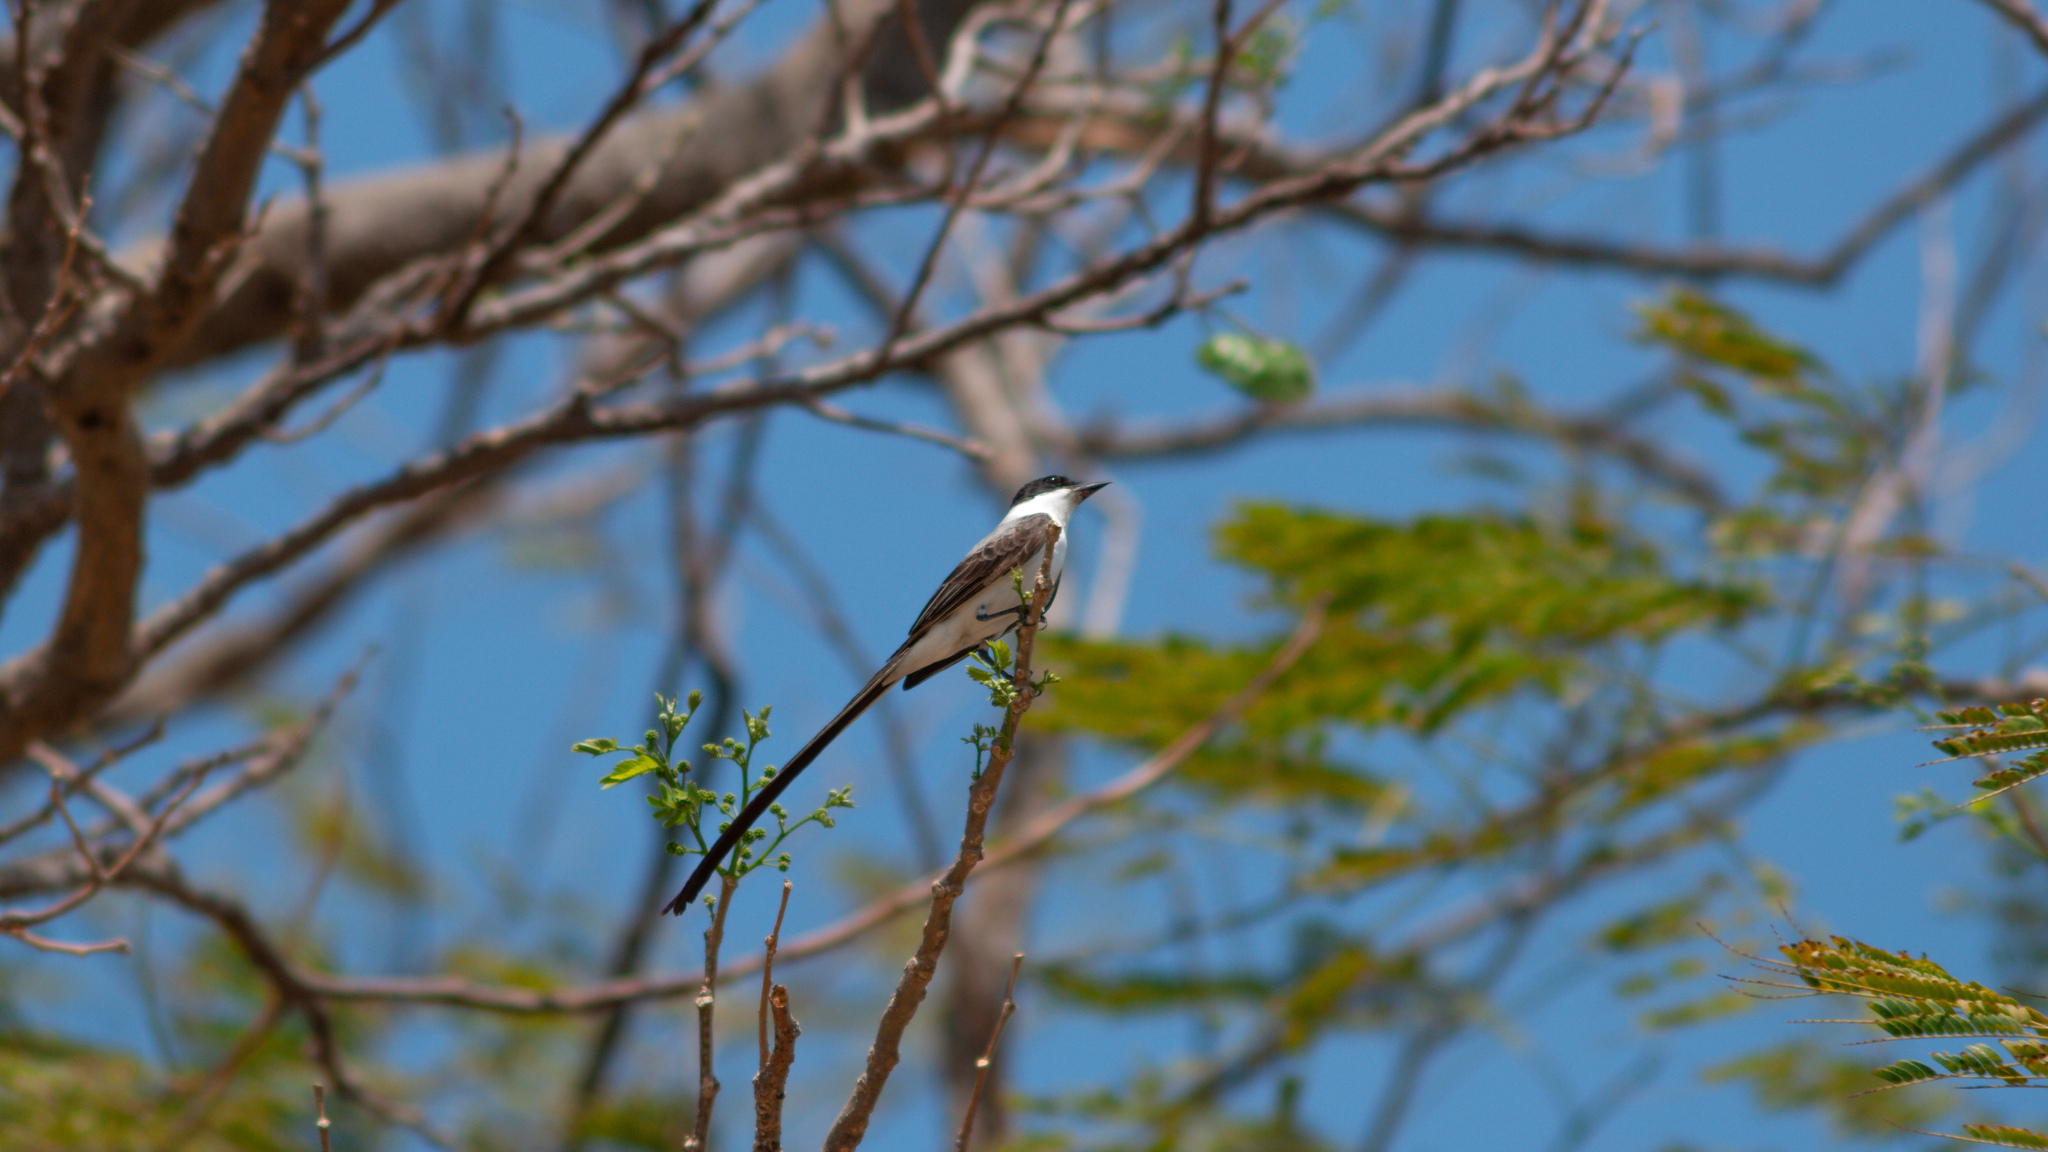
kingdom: Animalia
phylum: Chordata
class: Aves
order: Passeriformes
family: Tyrannidae
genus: Tyrannus
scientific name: Tyrannus savana
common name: Fork-tailed flycatcher
